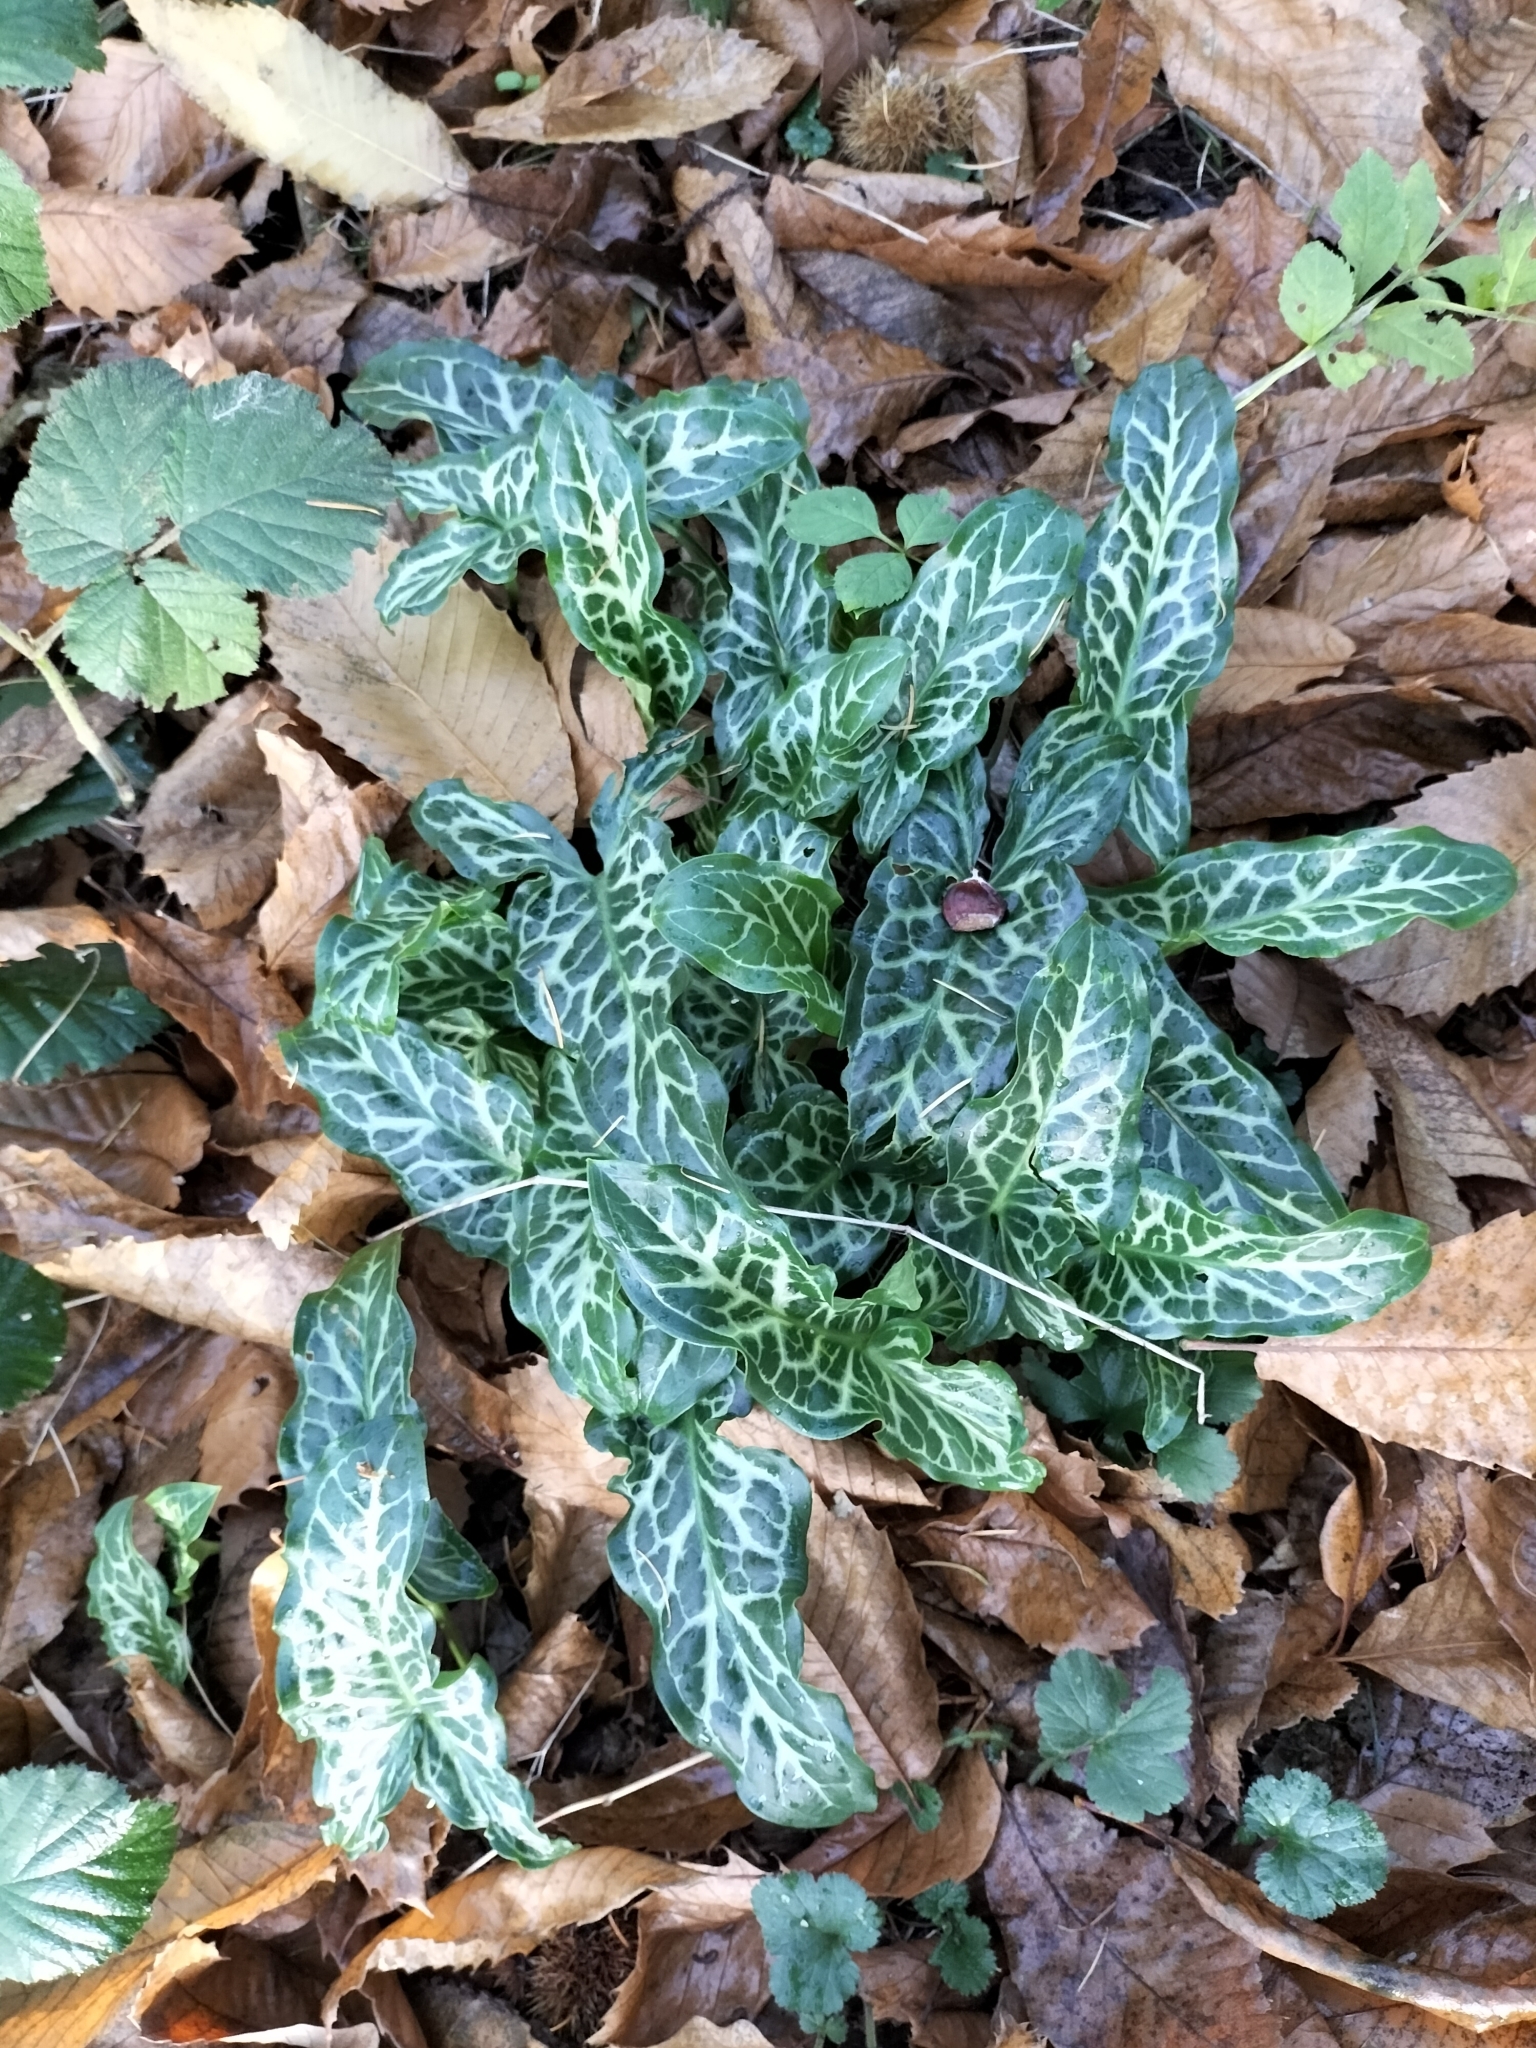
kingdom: Plantae
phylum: Tracheophyta
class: Liliopsida
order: Alismatales
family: Araceae
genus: Arum
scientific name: Arum italicum
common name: Italian lords-and-ladies
